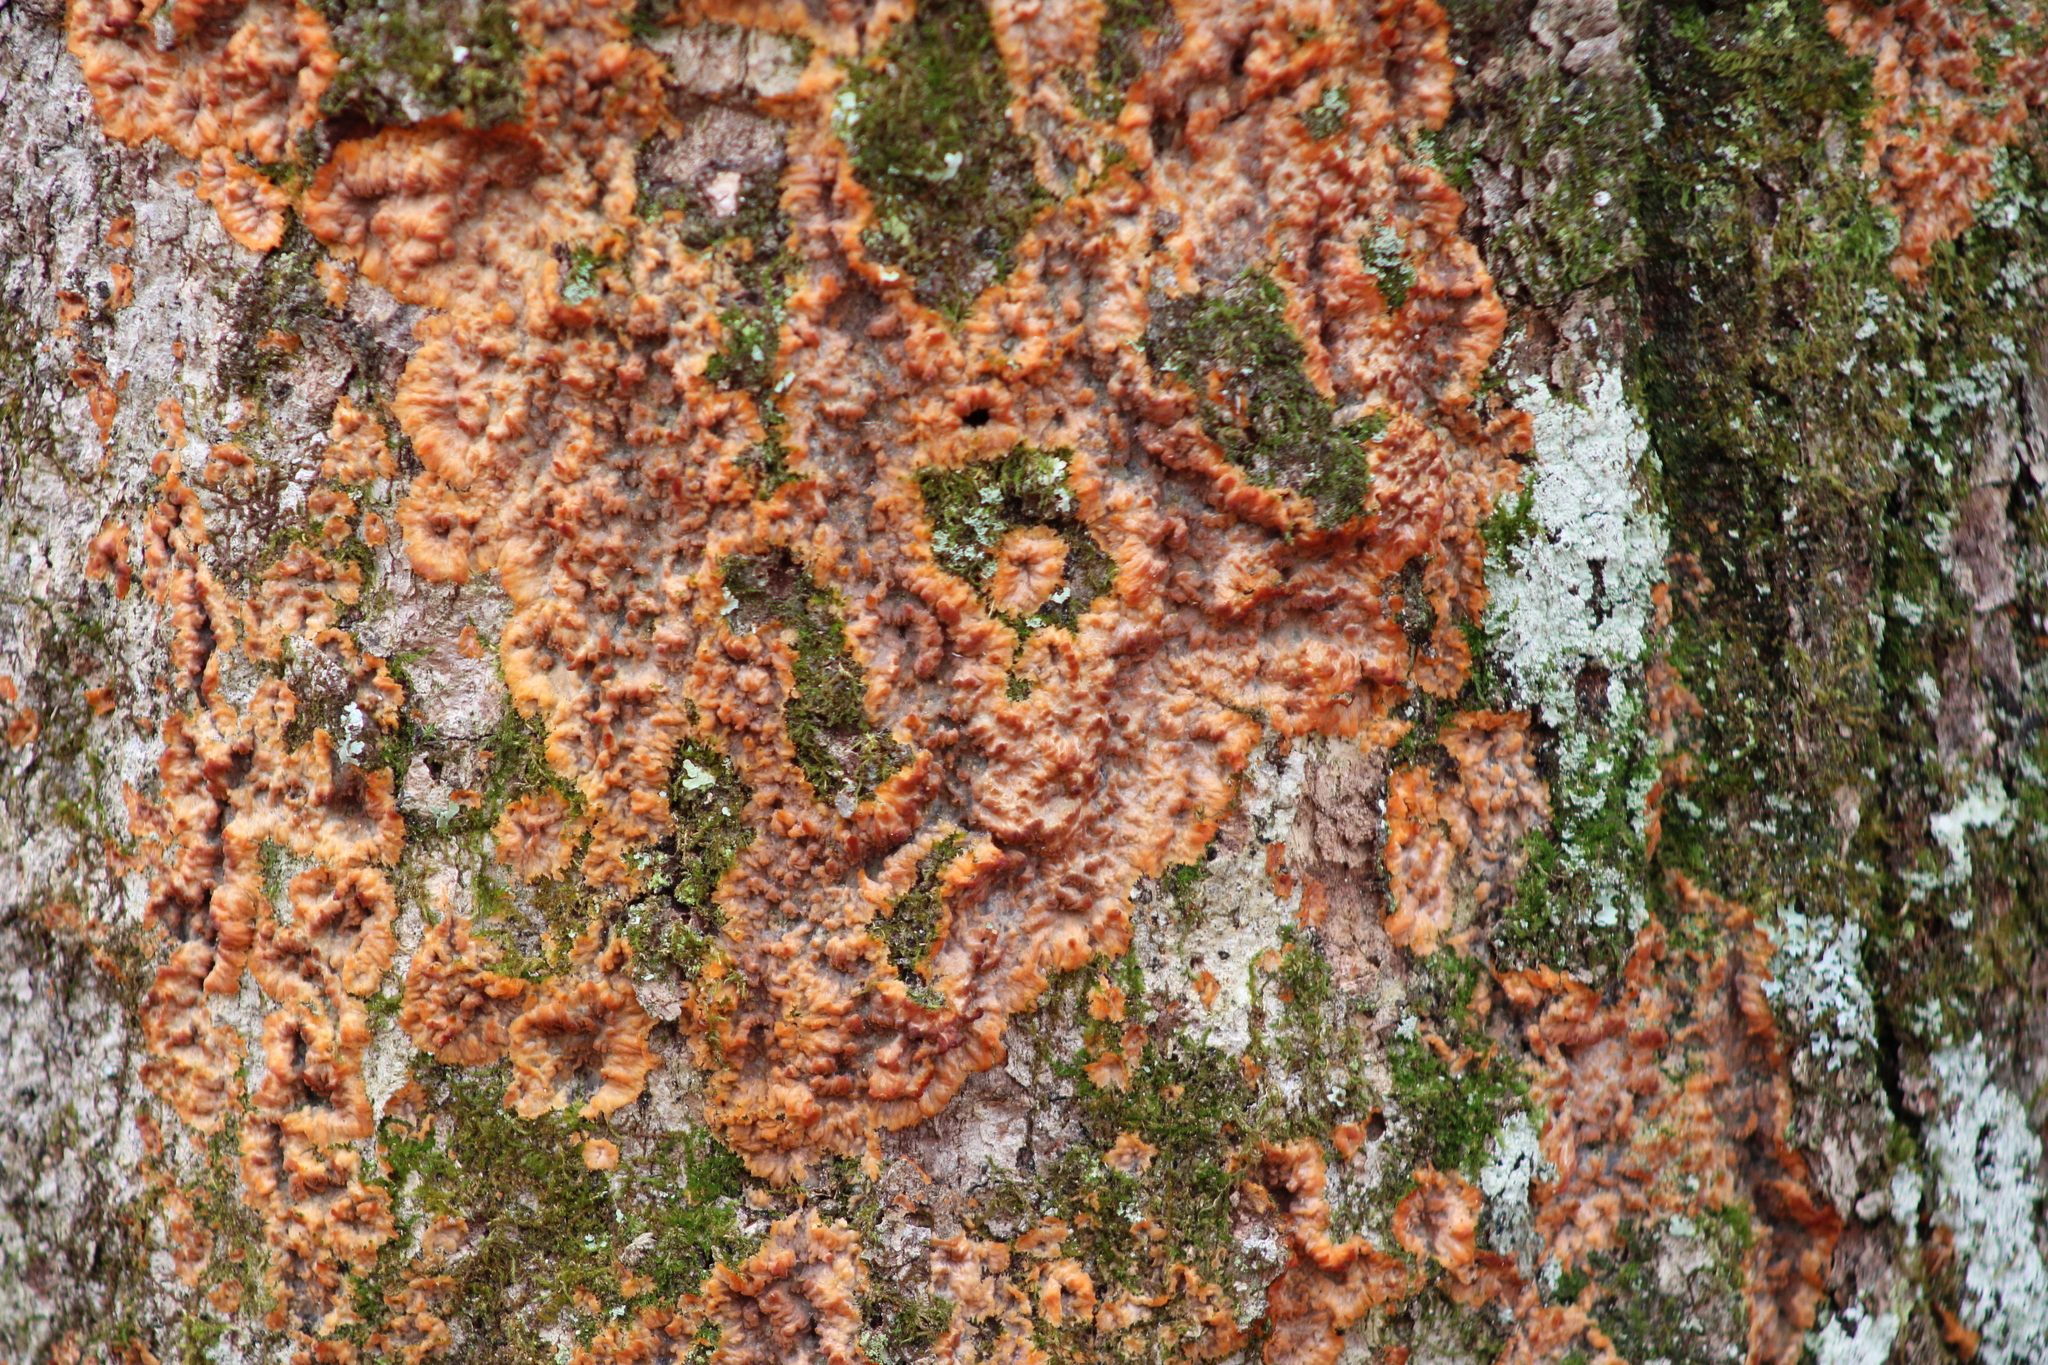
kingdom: Fungi
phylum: Basidiomycota
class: Agaricomycetes
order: Polyporales
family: Meruliaceae
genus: Phlebia
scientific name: Phlebia radiata
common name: Wrinkled crust
